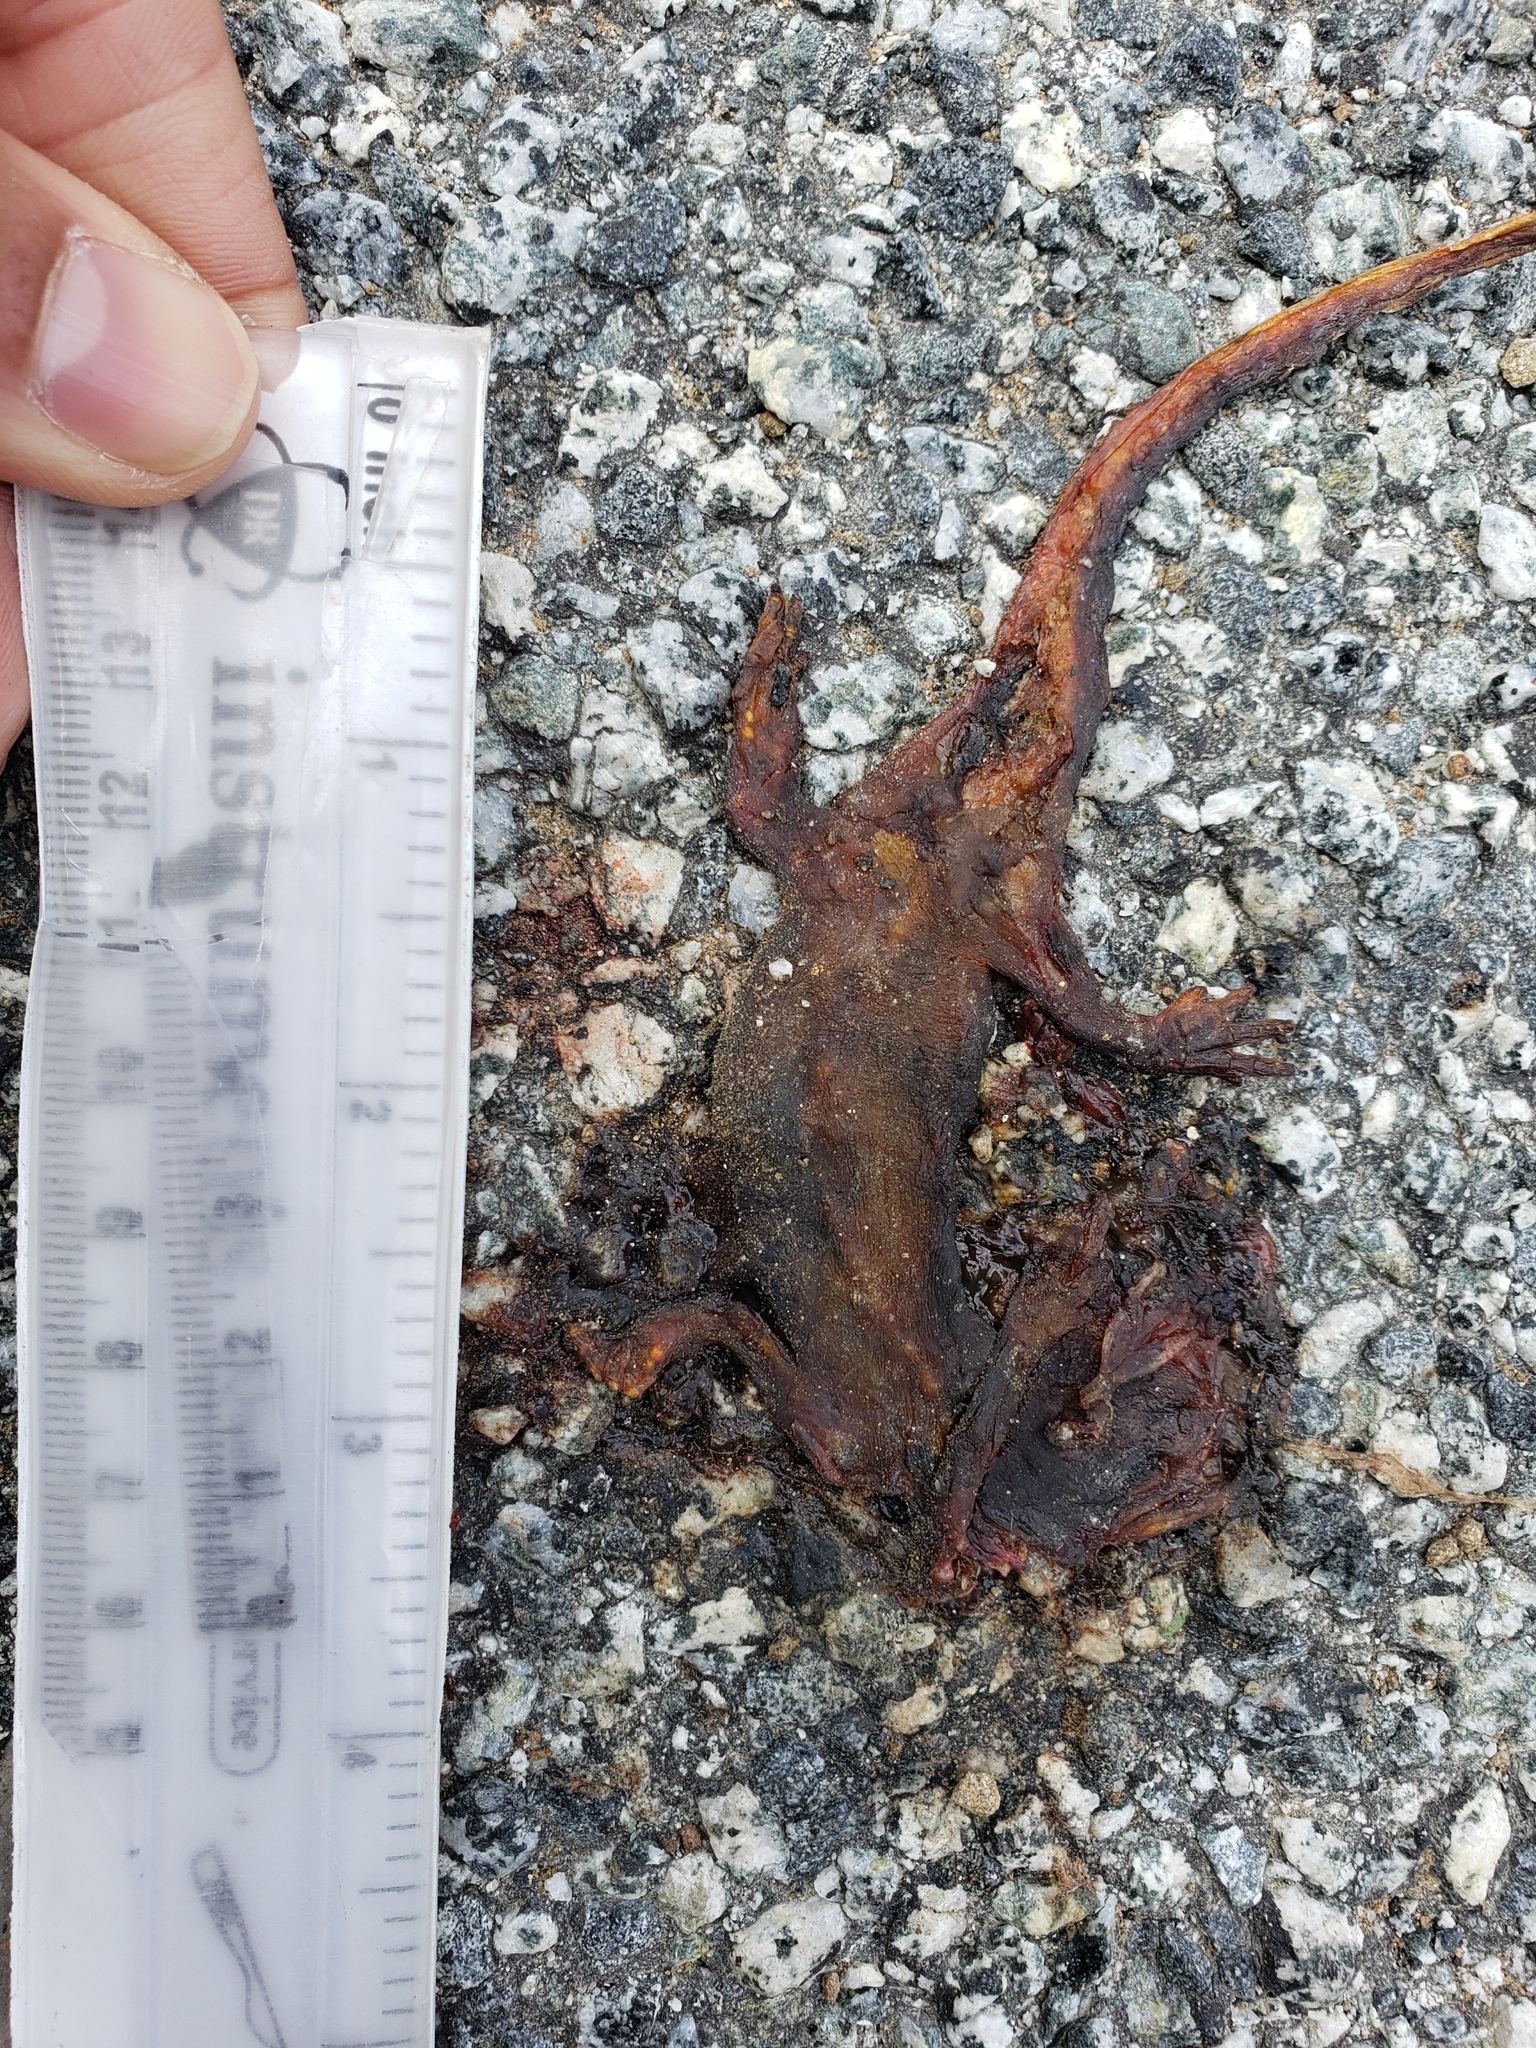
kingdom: Animalia
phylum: Chordata
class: Amphibia
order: Caudata
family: Salamandridae
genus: Taricha
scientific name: Taricha
